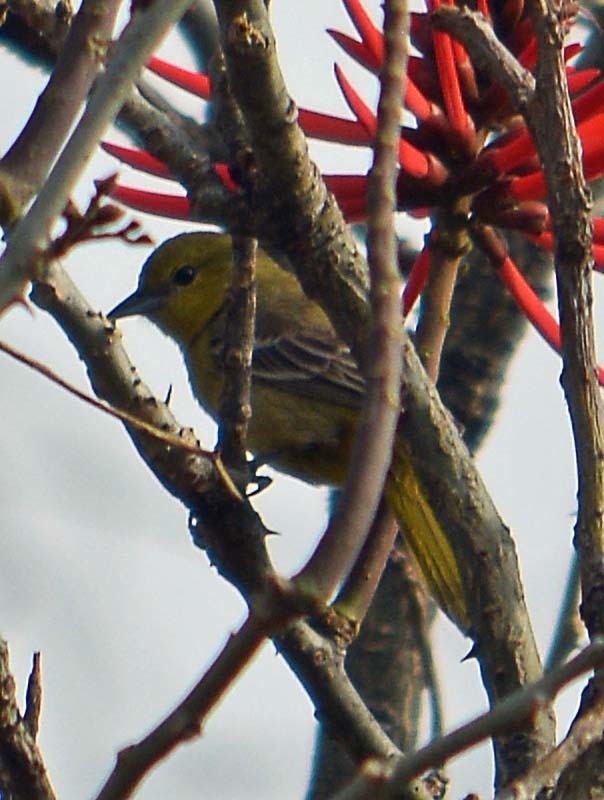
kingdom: Animalia
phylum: Chordata
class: Aves
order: Passeriformes
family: Icteridae
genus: Icterus
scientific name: Icterus spurius
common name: Orchard oriole
